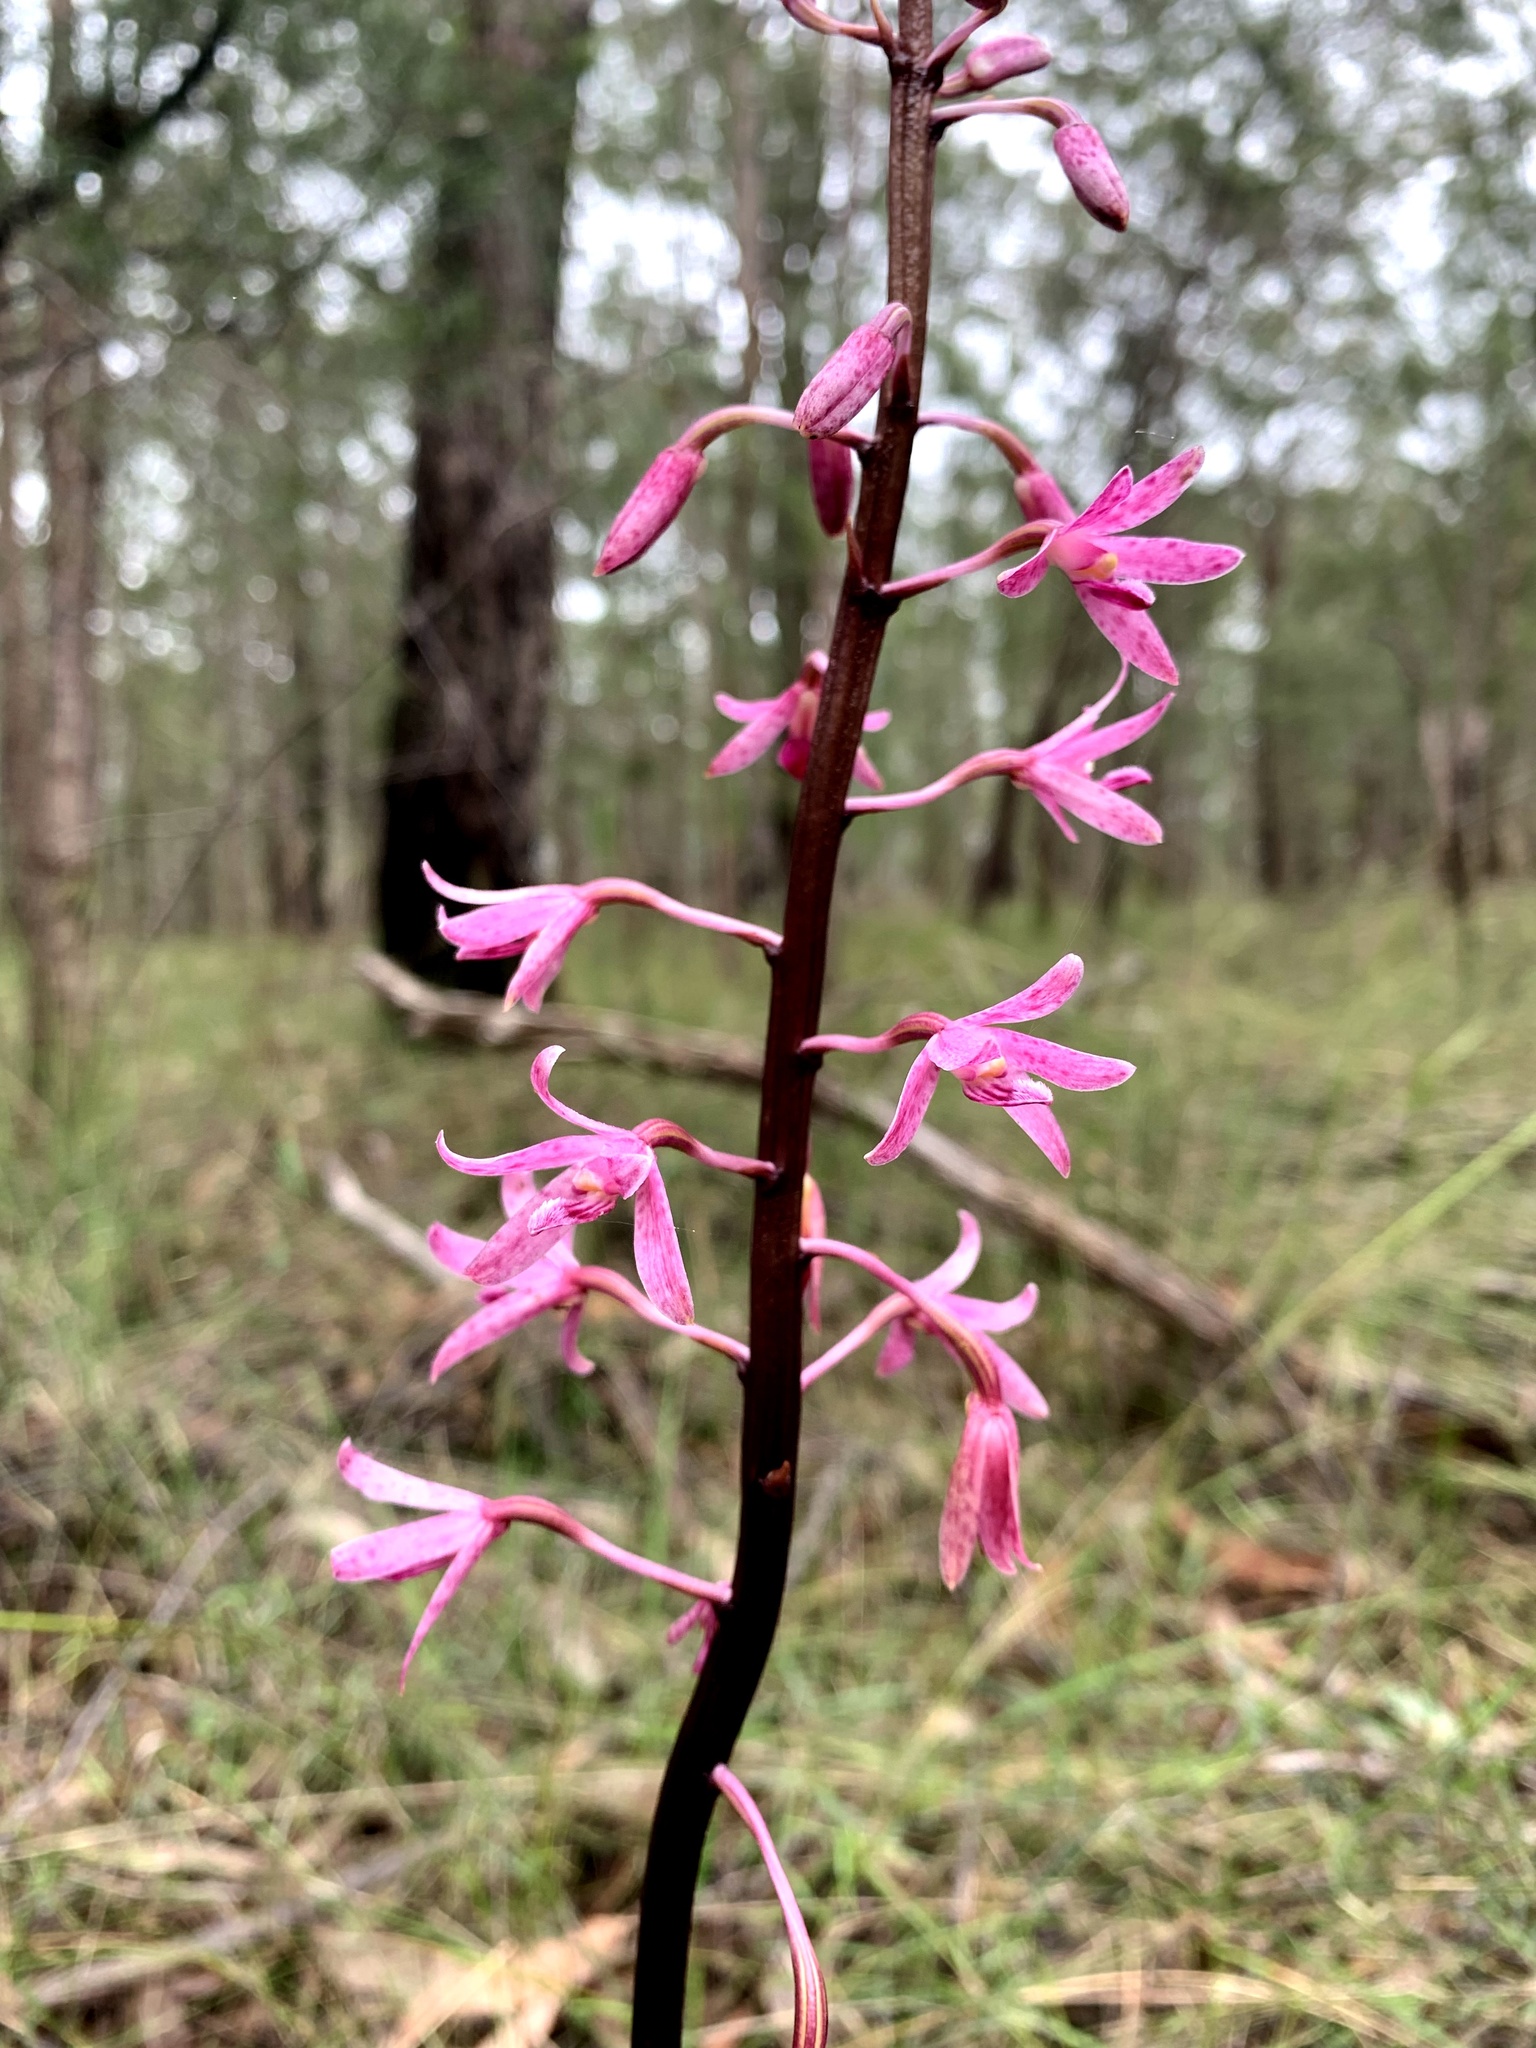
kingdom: Plantae
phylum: Tracheophyta
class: Liliopsida
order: Asparagales
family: Orchidaceae
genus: Dipodium
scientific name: Dipodium roseum
